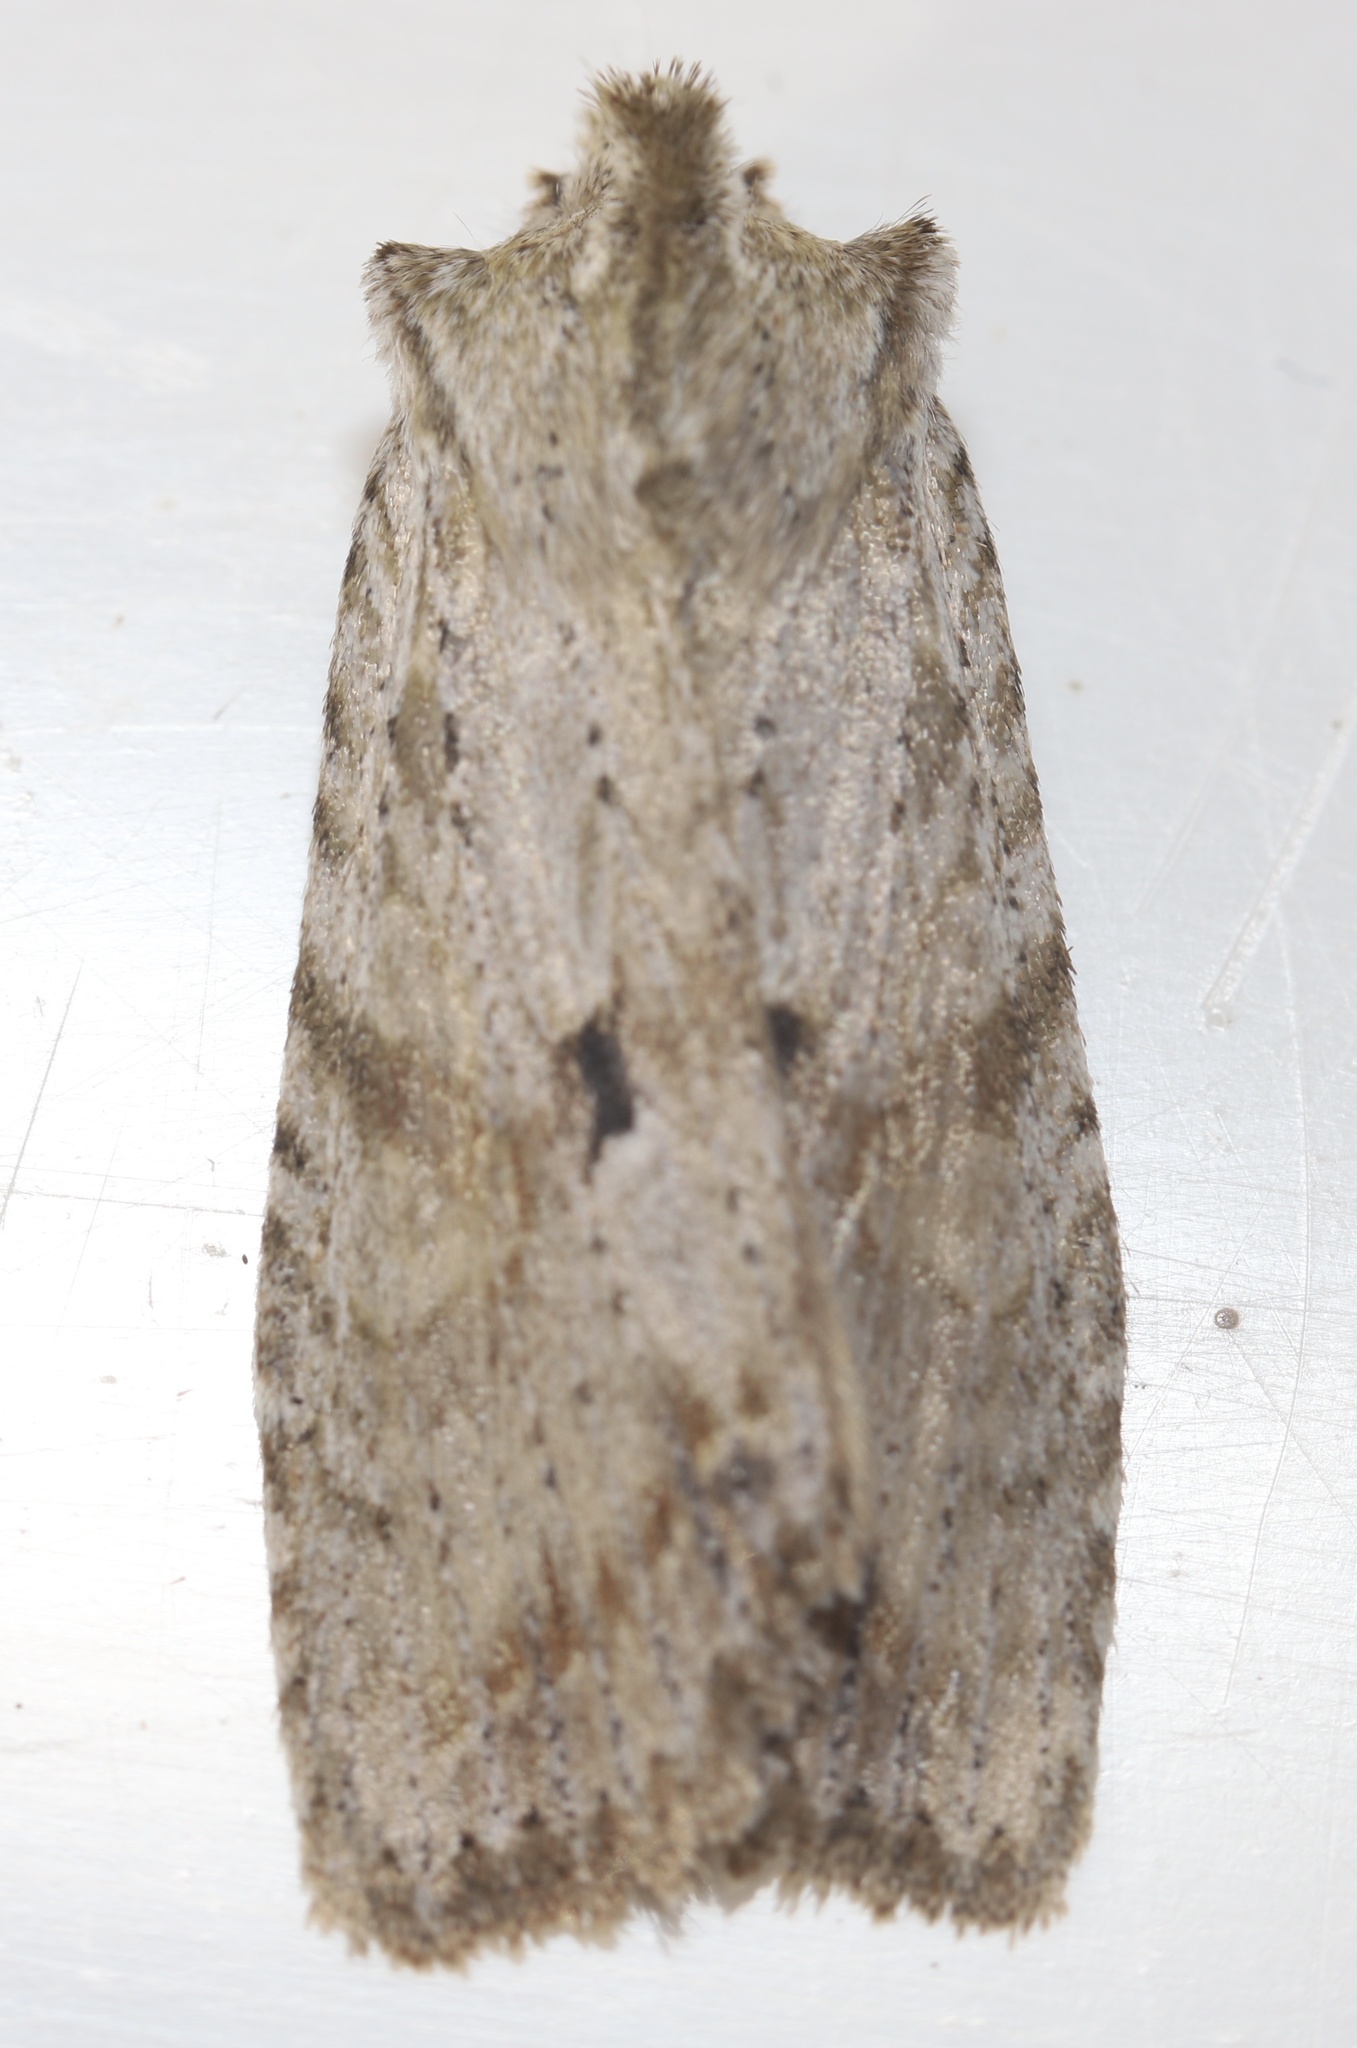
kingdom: Animalia
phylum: Arthropoda
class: Insecta
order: Lepidoptera
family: Noctuidae
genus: Lithophane
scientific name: Lithophane patefacta
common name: Dimorphic pinion moth
